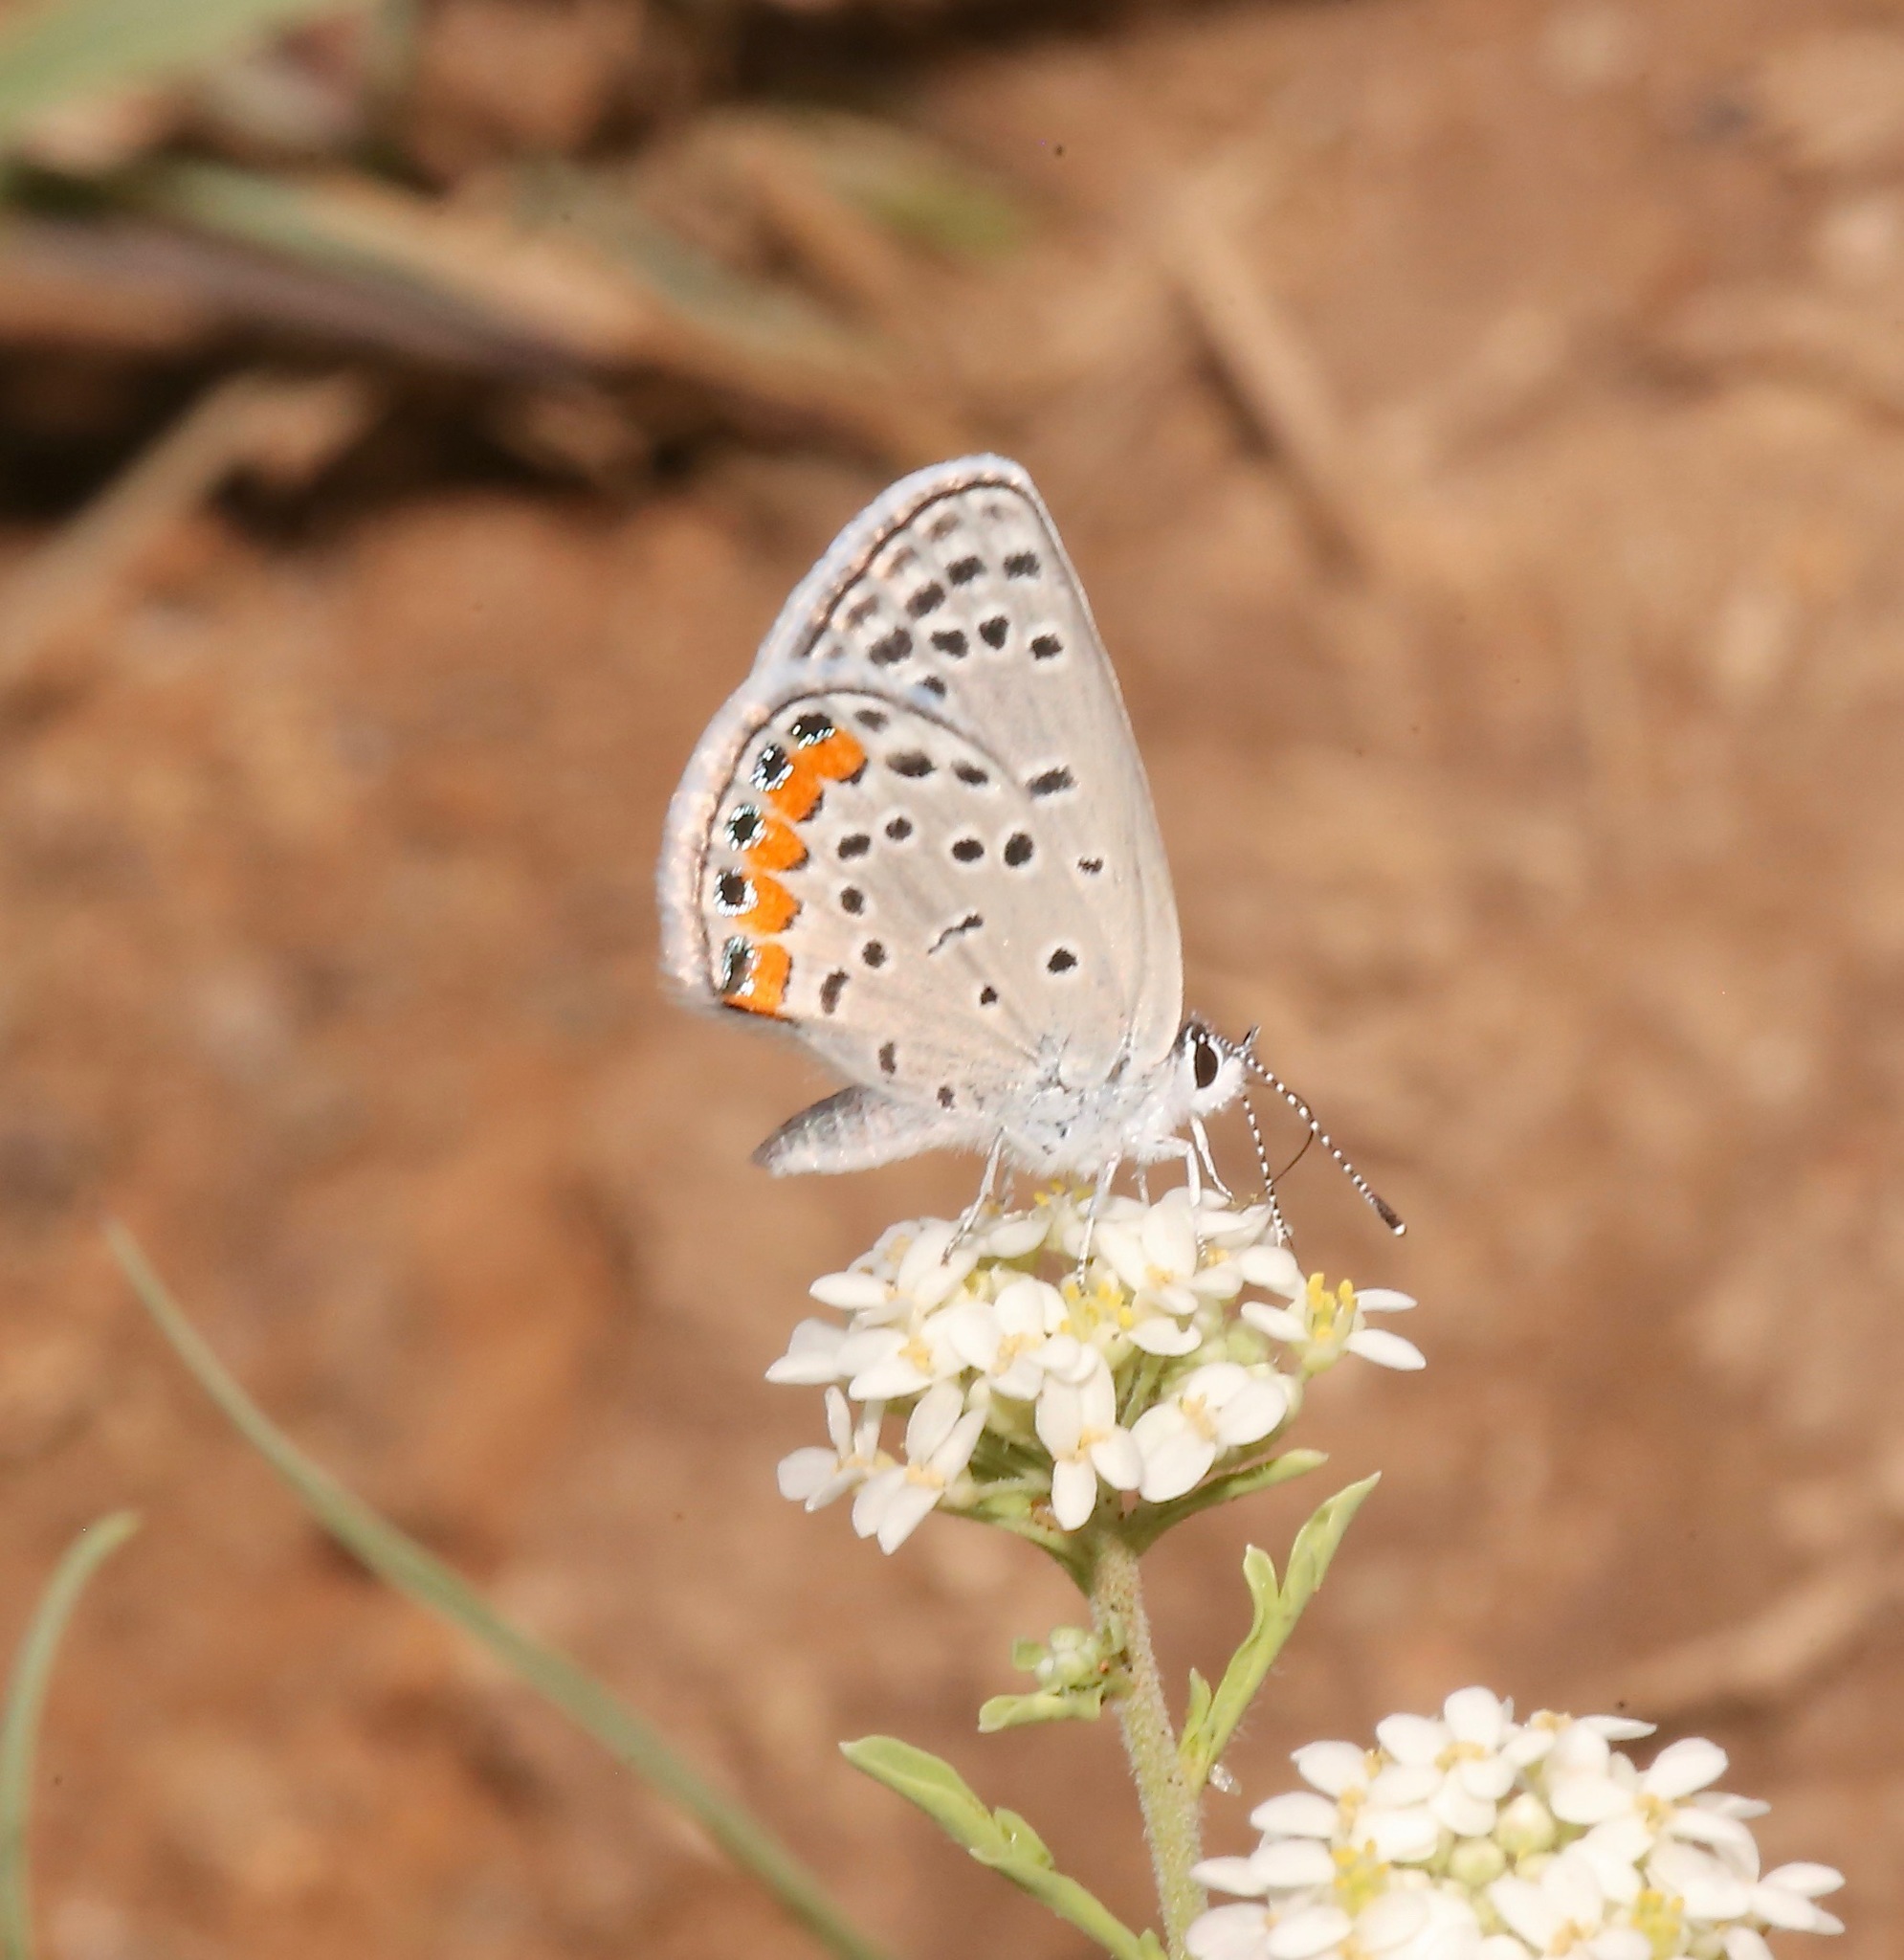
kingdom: Animalia
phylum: Arthropoda
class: Insecta
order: Lepidoptera
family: Lycaenidae
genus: Icaricia
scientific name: Icaricia lupini
